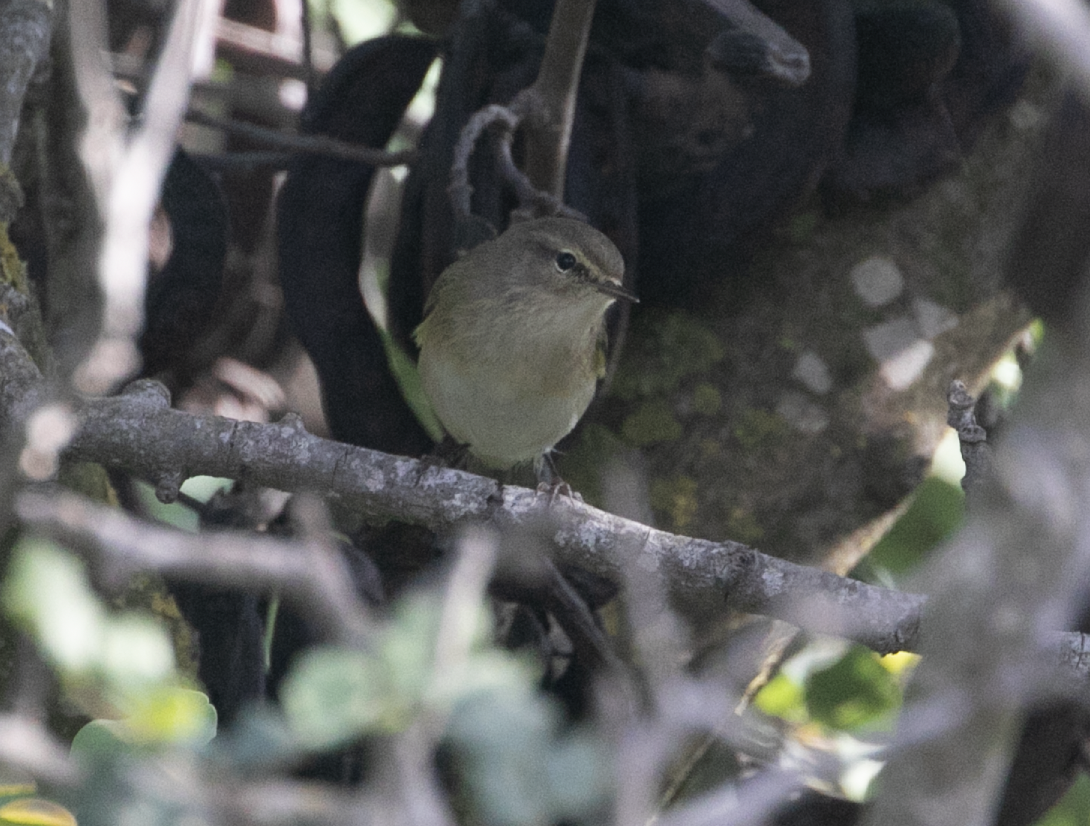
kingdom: Animalia
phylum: Chordata
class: Aves
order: Passeriformes
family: Phylloscopidae
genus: Phylloscopus
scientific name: Phylloscopus collybita
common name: Common chiffchaff
